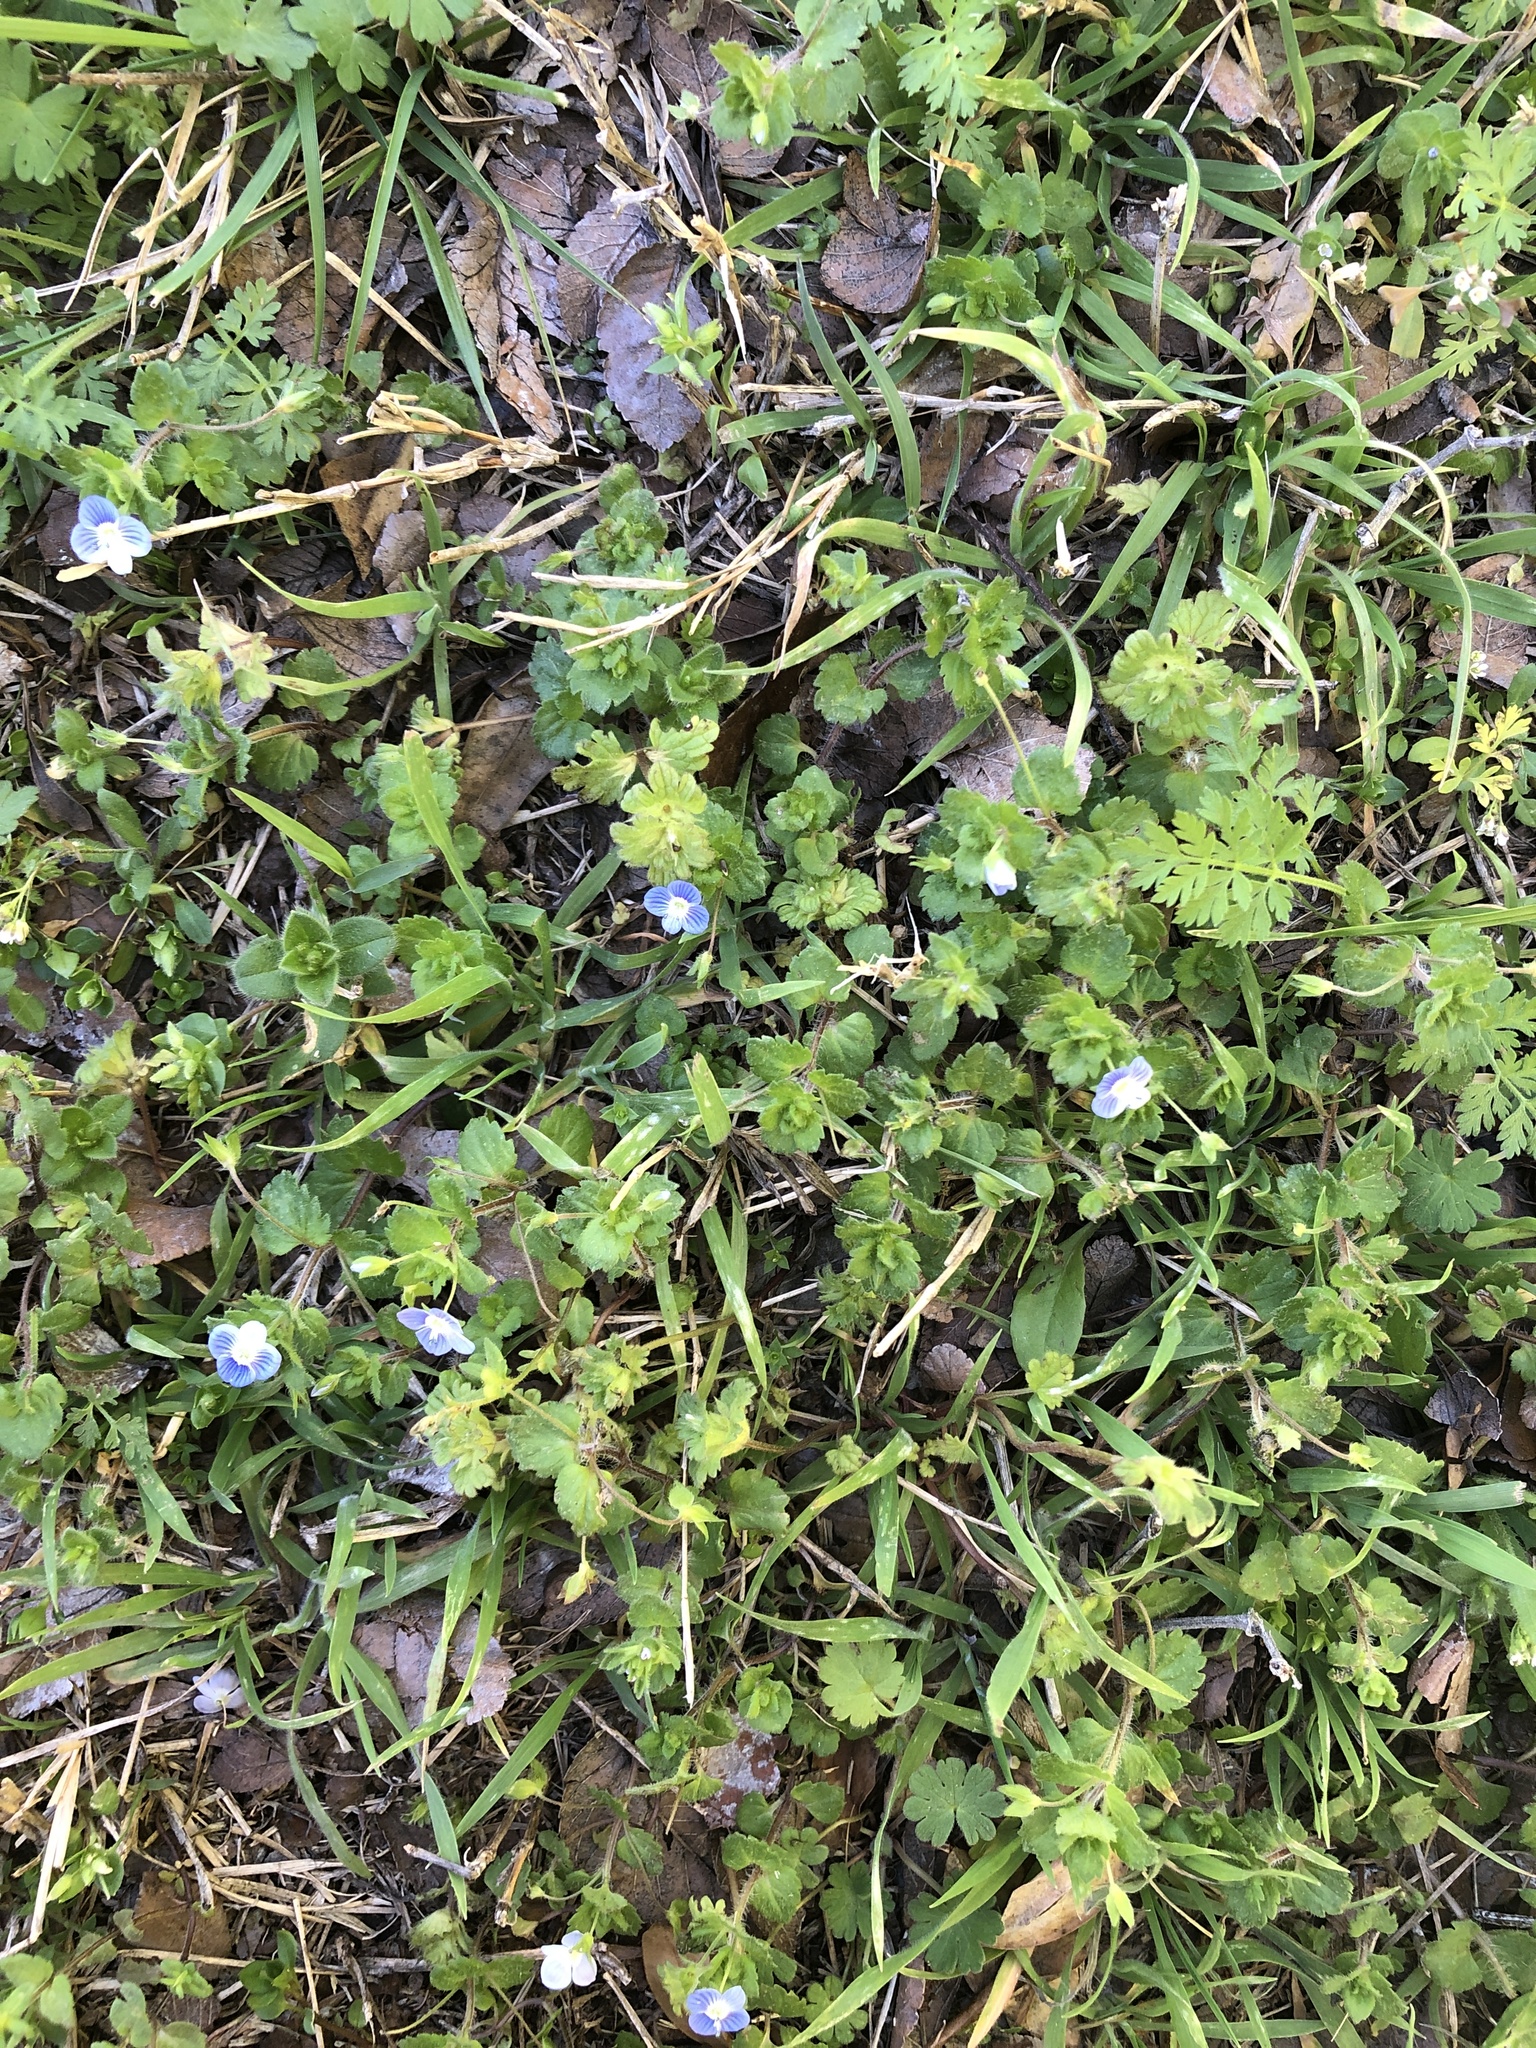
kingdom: Plantae
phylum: Tracheophyta
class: Magnoliopsida
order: Lamiales
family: Plantaginaceae
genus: Veronica
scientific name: Veronica persica
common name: Common field-speedwell
